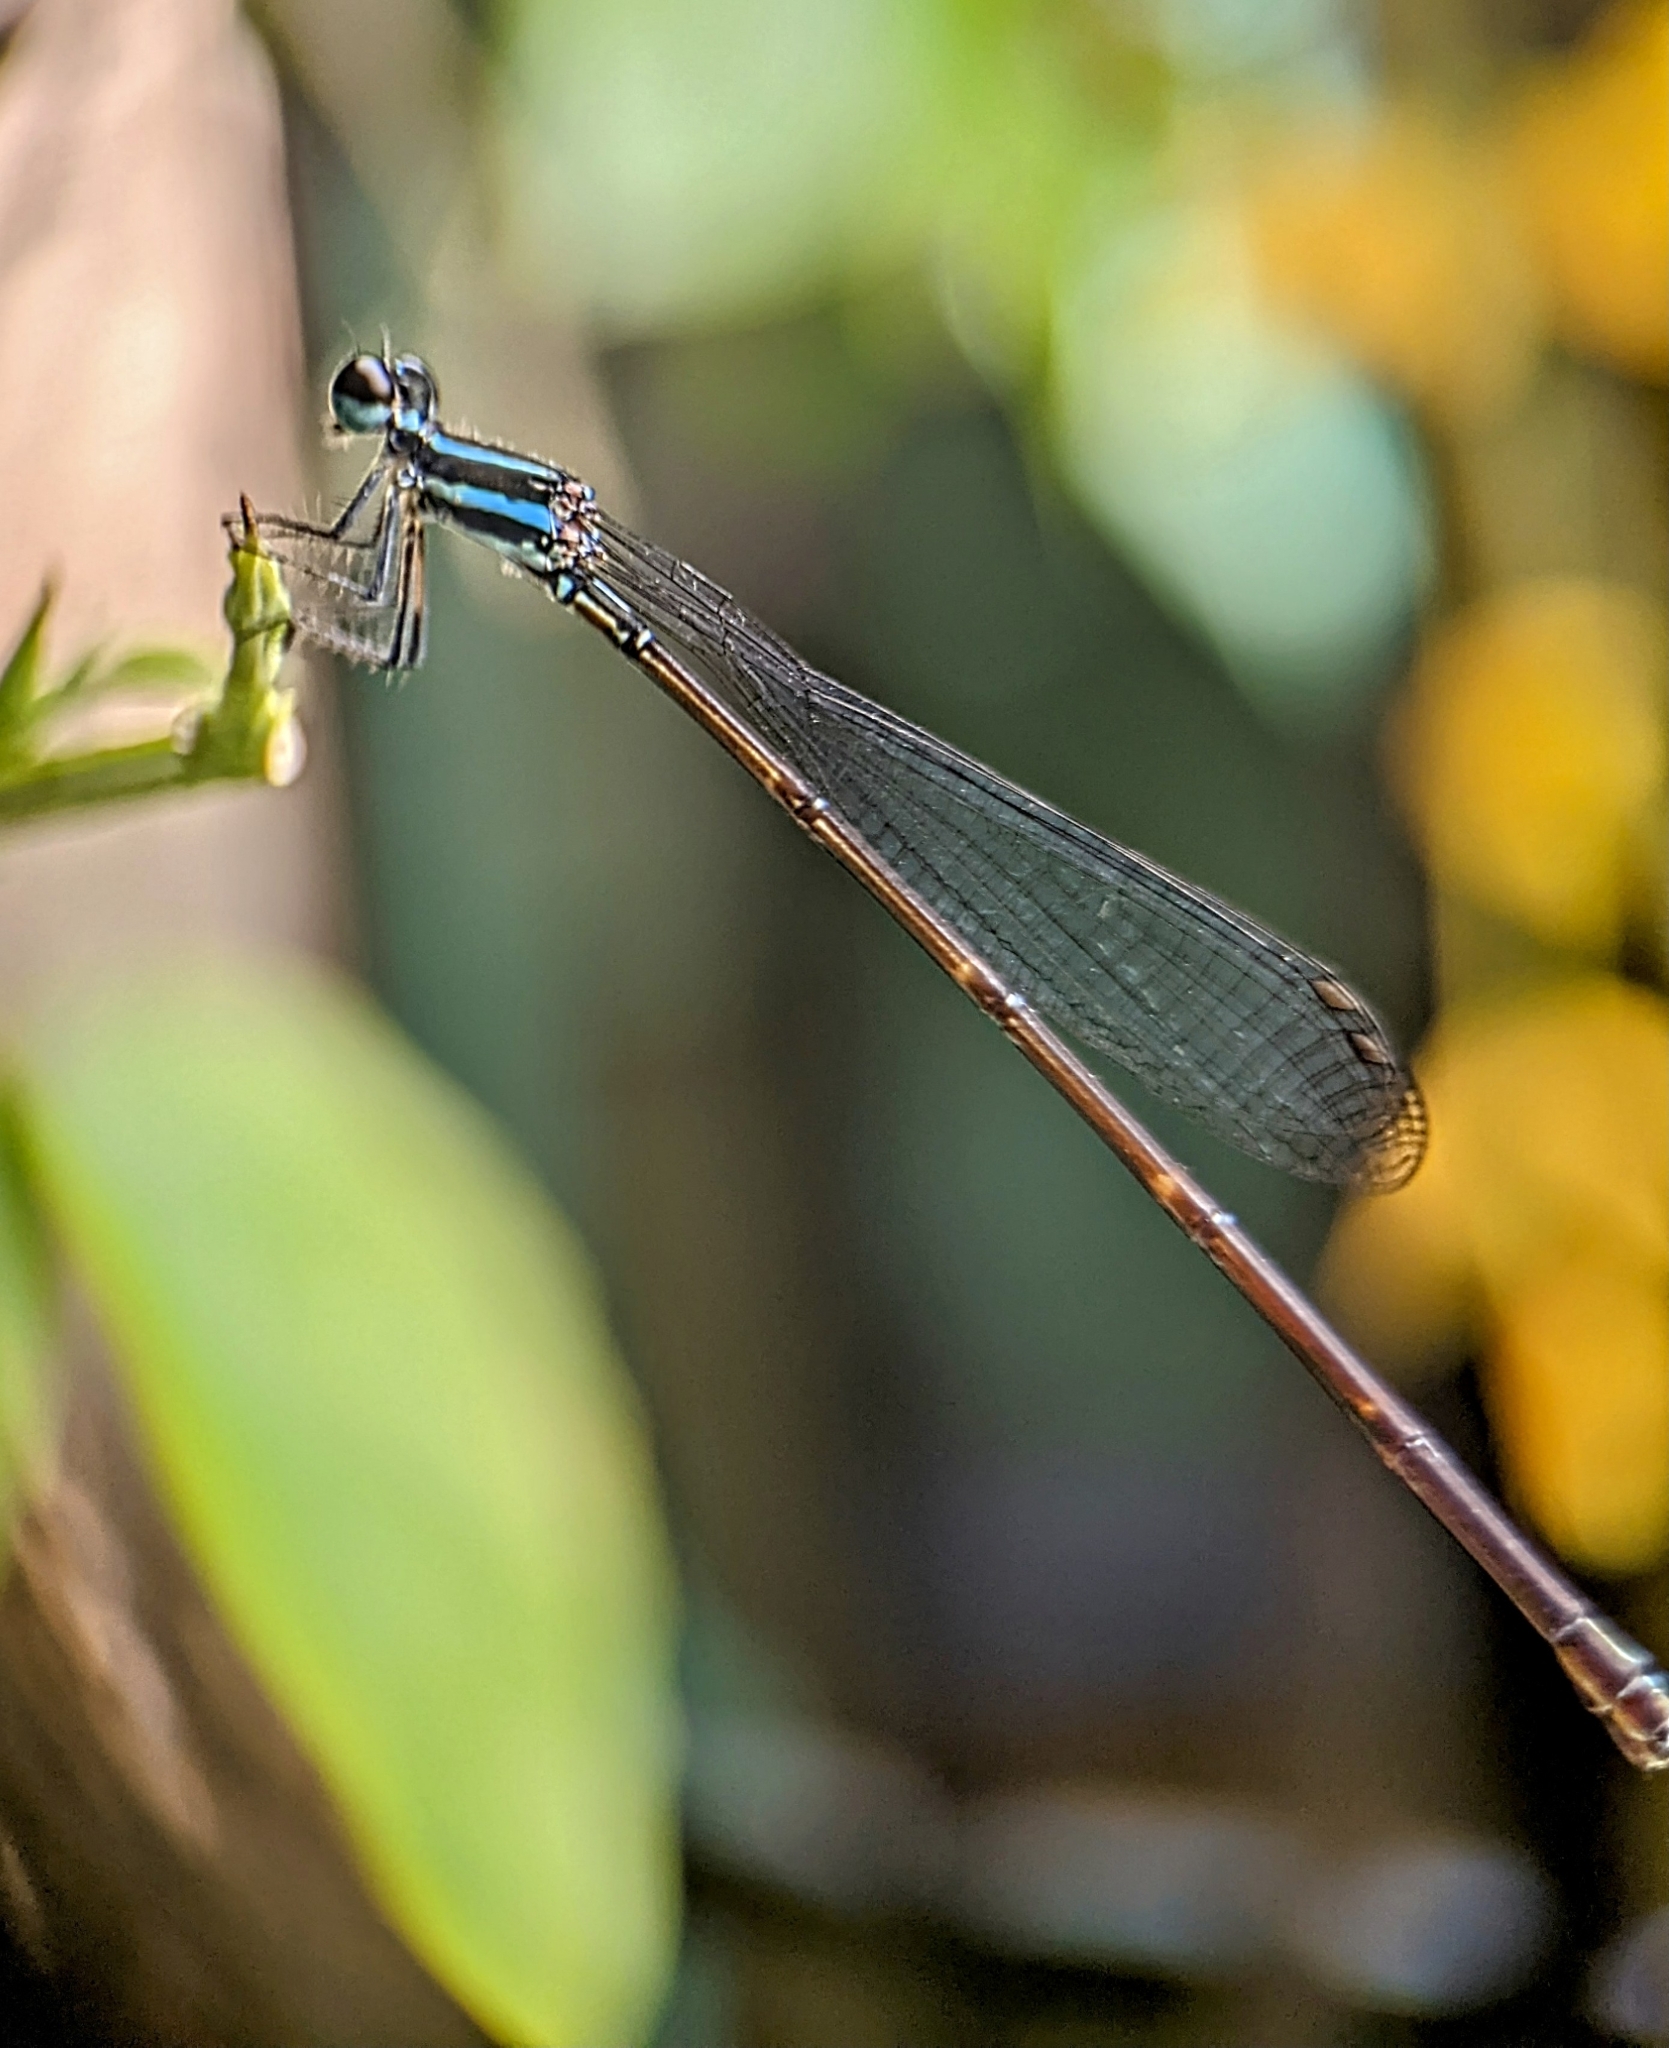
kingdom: Animalia
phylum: Arthropoda
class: Insecta
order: Odonata
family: Platycnemididae
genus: Prodasineura
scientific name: Prodasineura laidlawii
